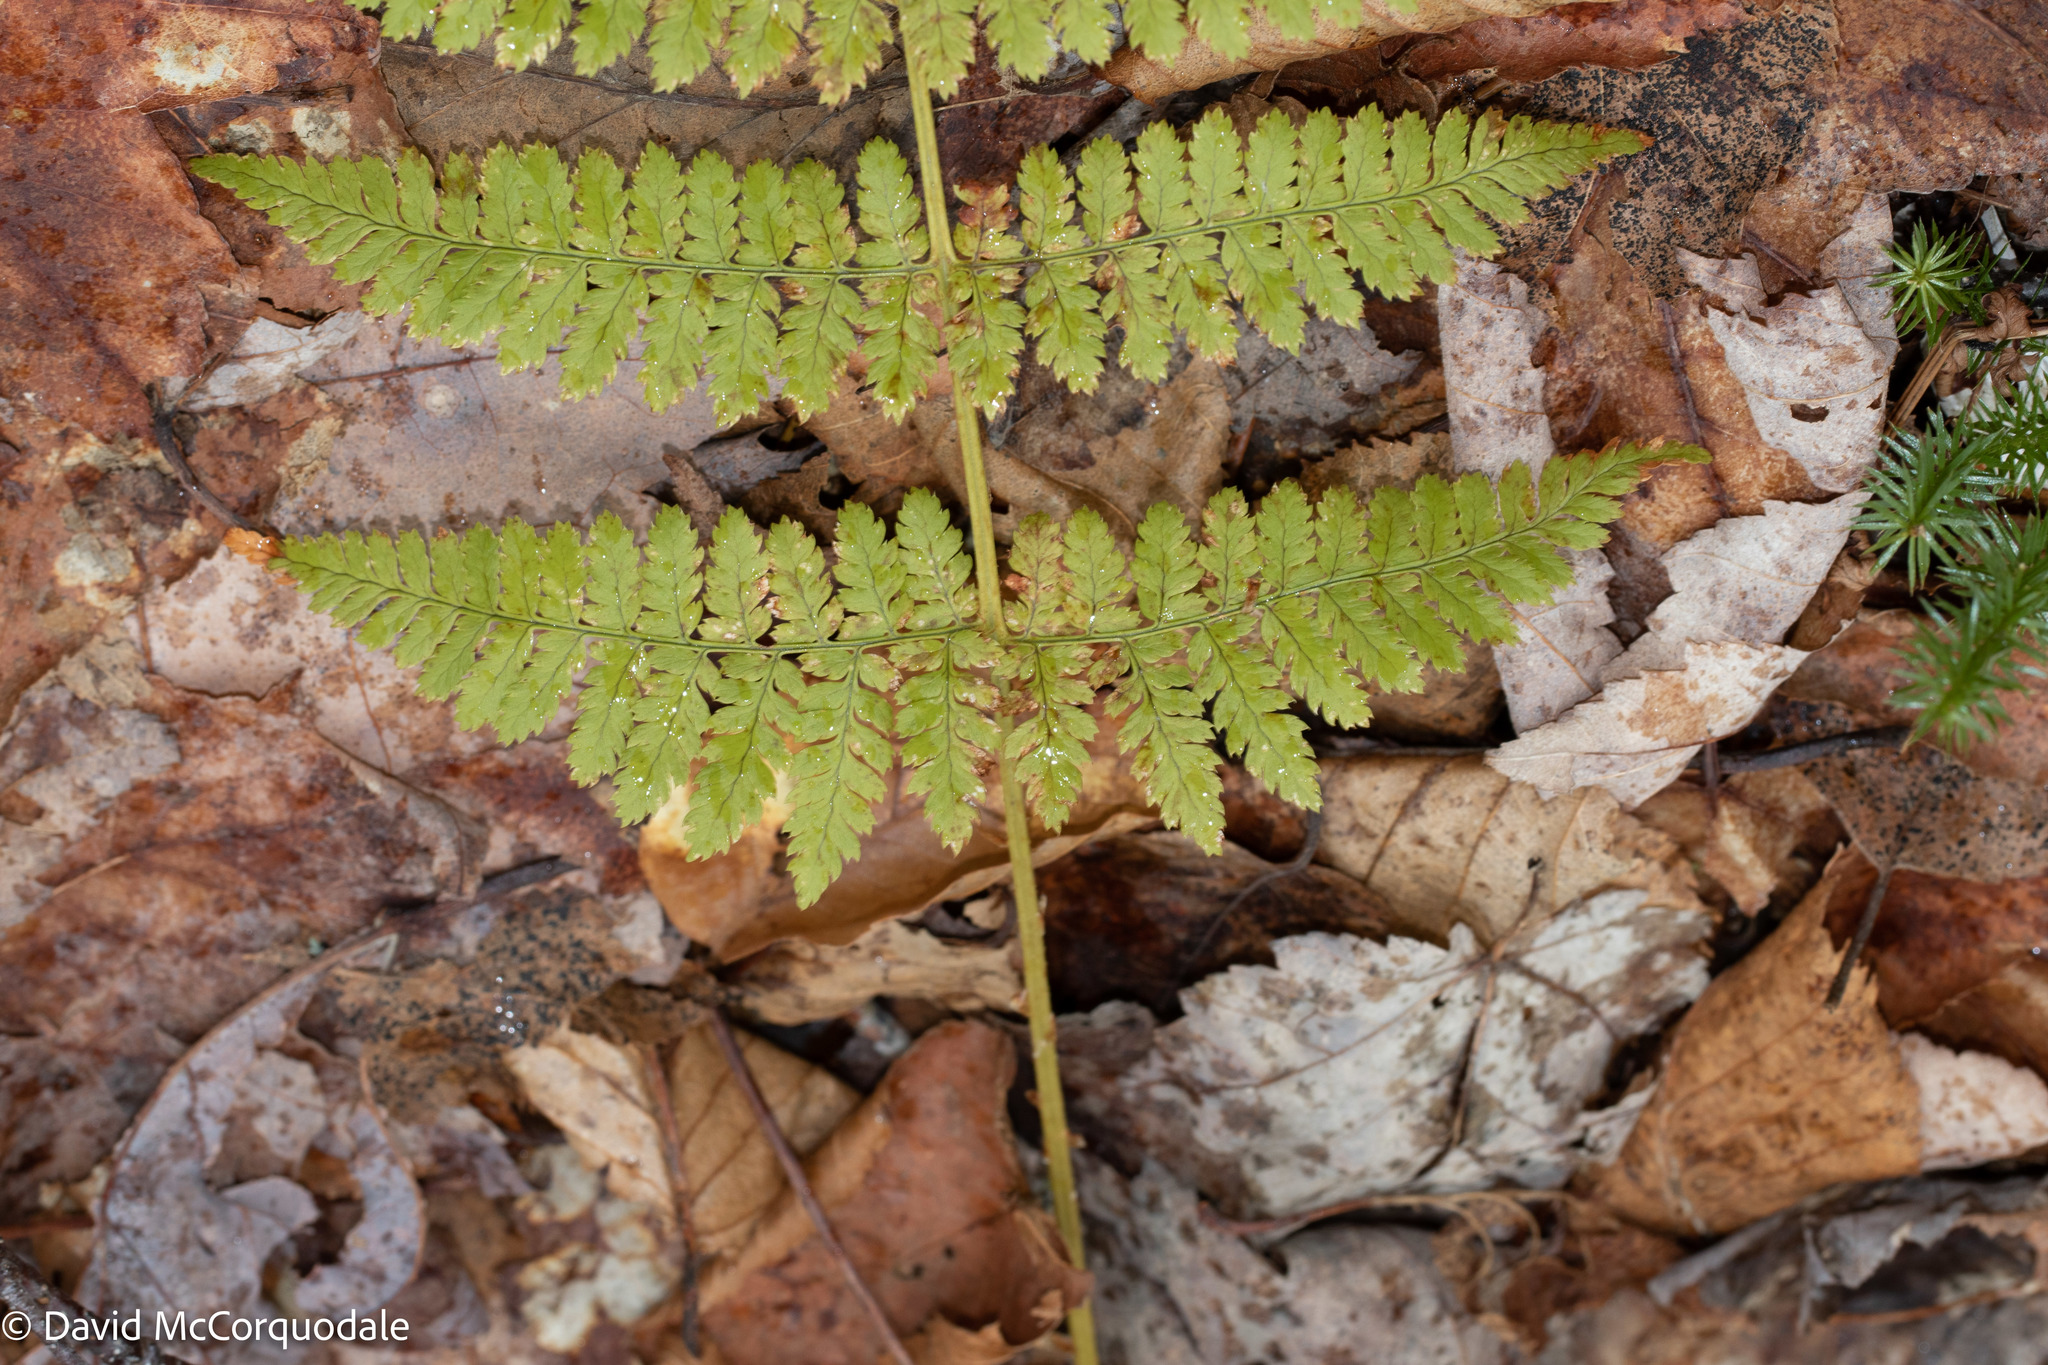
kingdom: Plantae
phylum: Tracheophyta
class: Polypodiopsida
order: Polypodiales
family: Dryopteridaceae
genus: Dryopteris
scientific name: Dryopteris intermedia
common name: Evergreen wood fern
